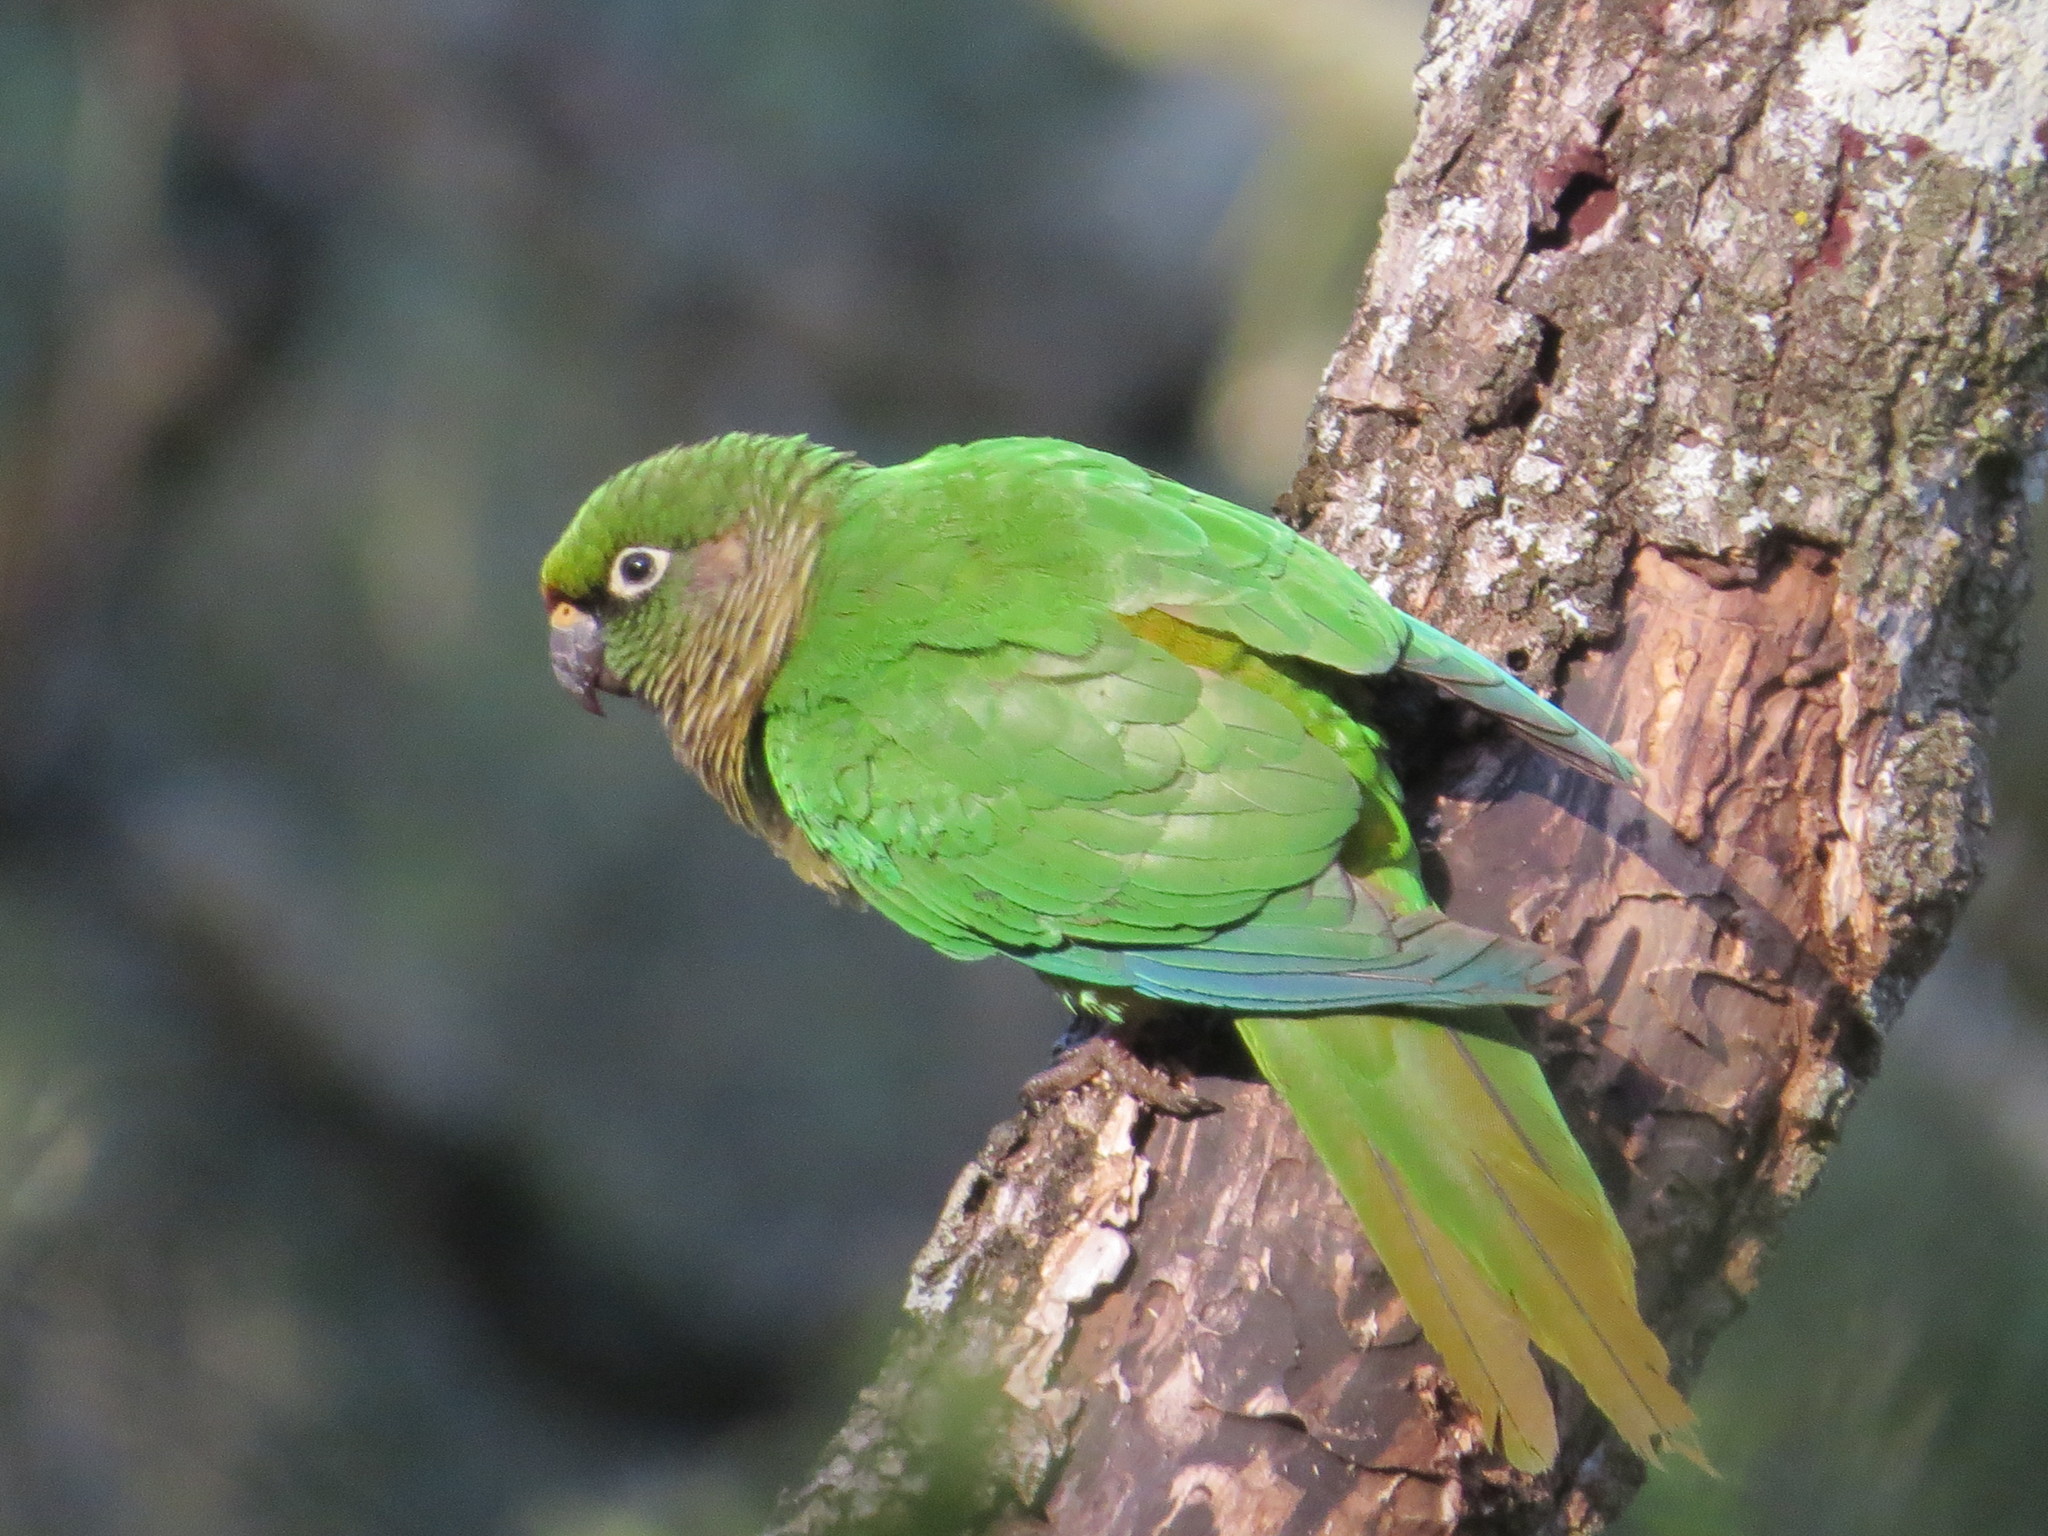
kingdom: Animalia
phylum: Chordata
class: Aves
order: Psittaciformes
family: Psittacidae
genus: Pyrrhura
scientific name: Pyrrhura frontalis
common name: Maroon-bellied parakeet
